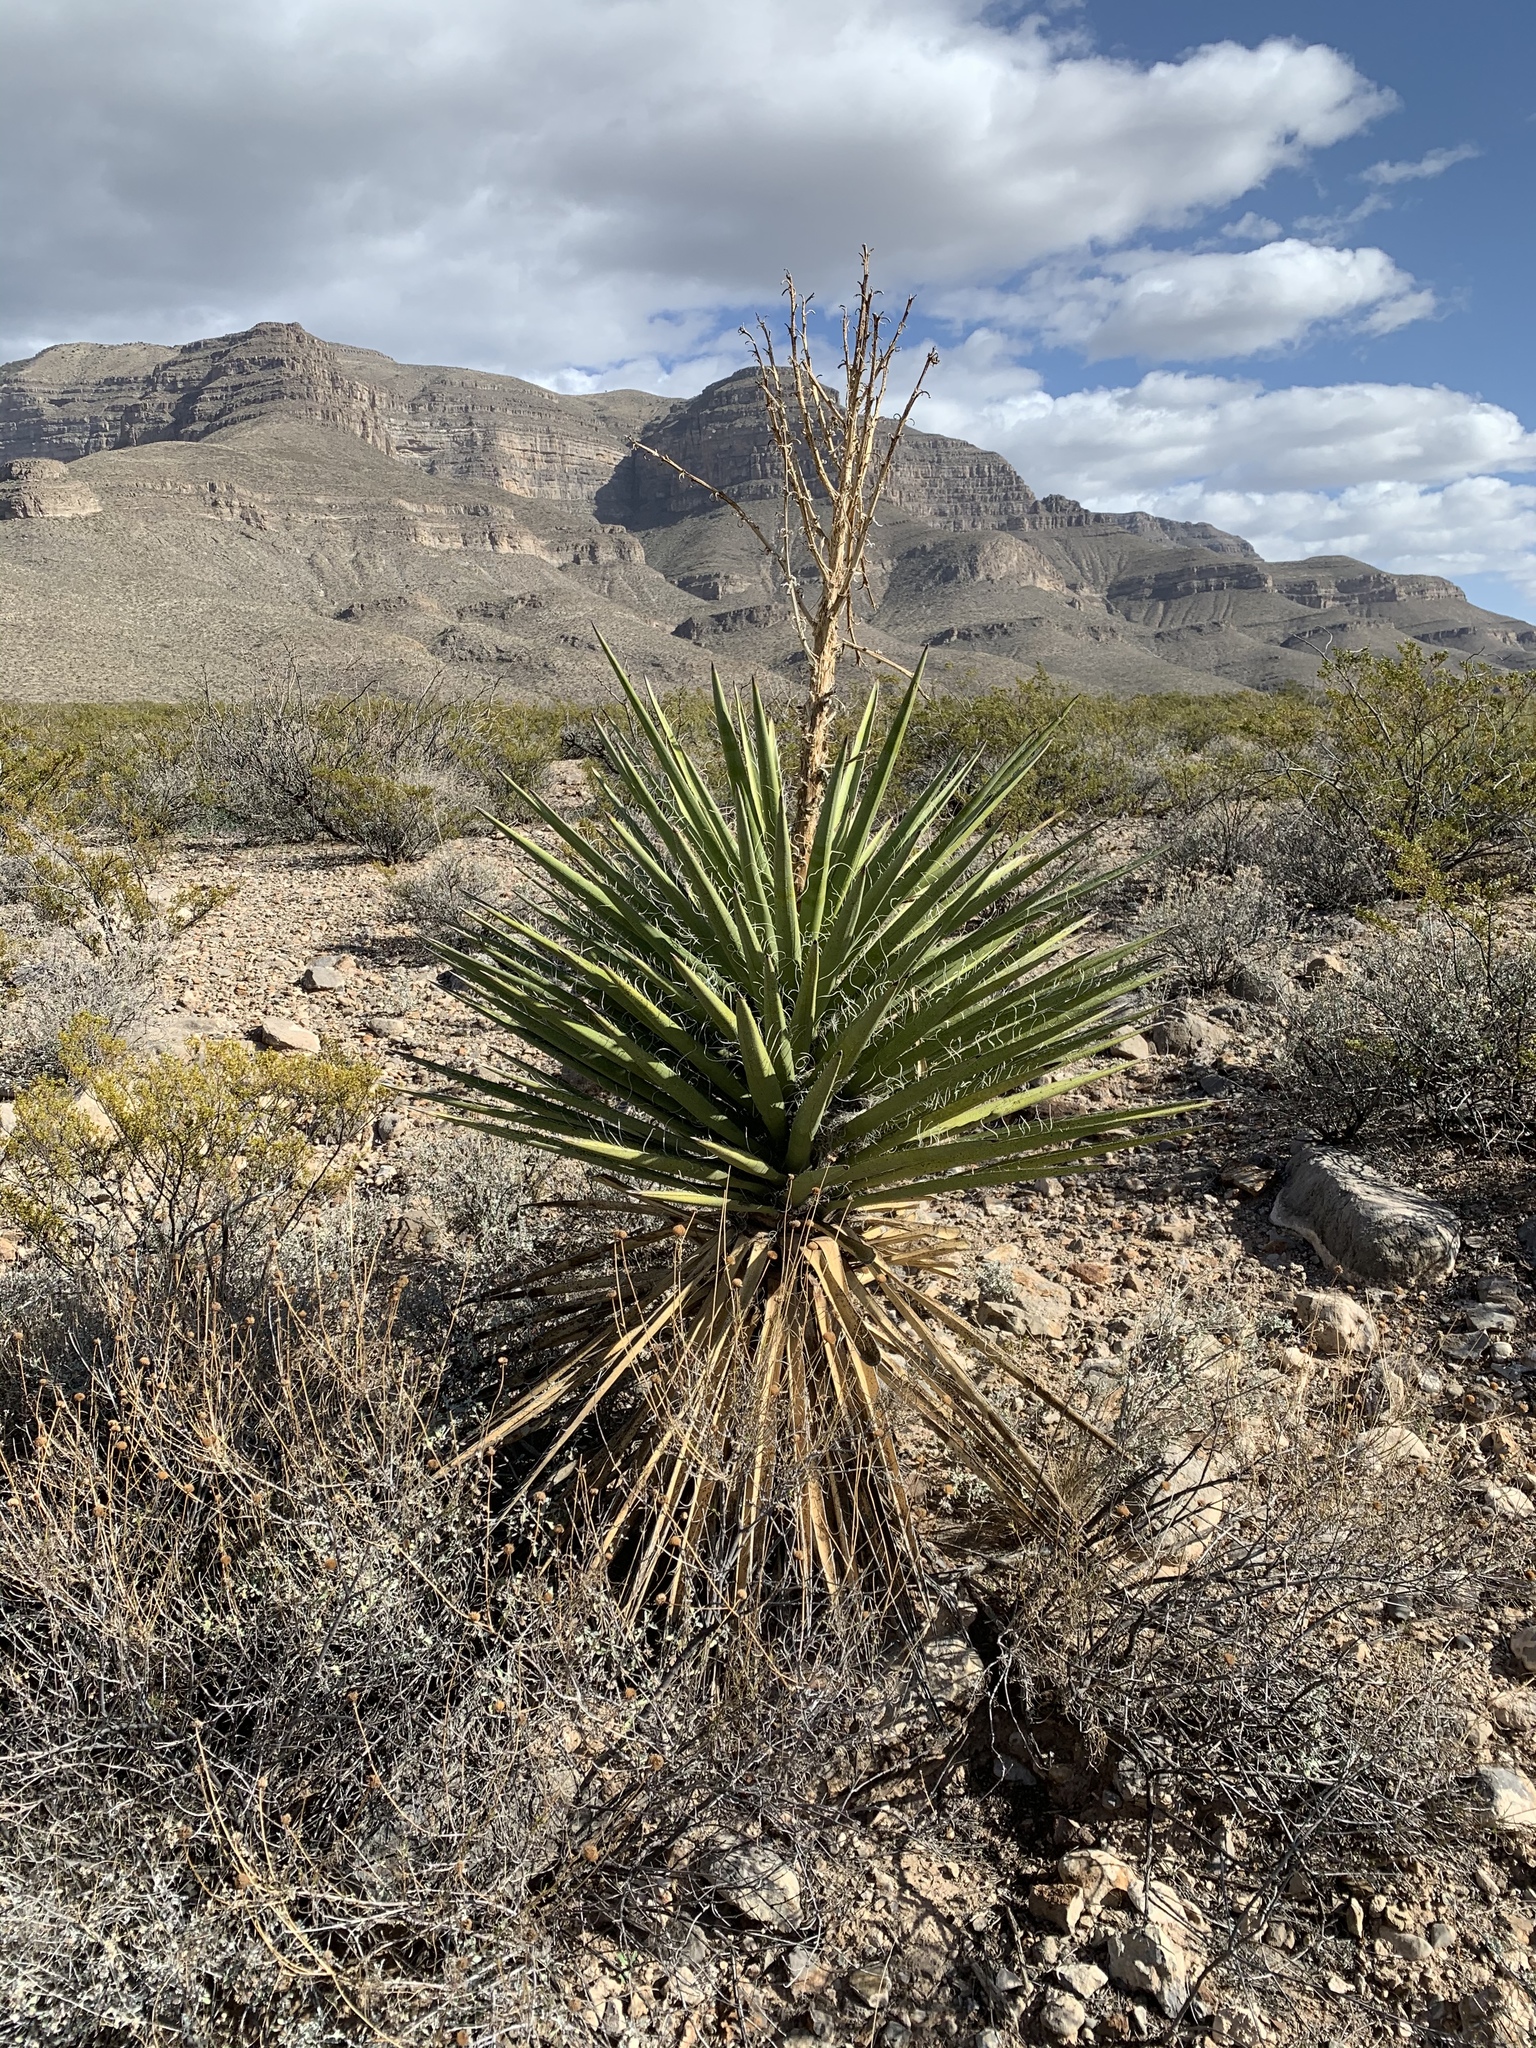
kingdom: Plantae
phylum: Tracheophyta
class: Liliopsida
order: Asparagales
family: Asparagaceae
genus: Yucca
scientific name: Yucca treculiana
